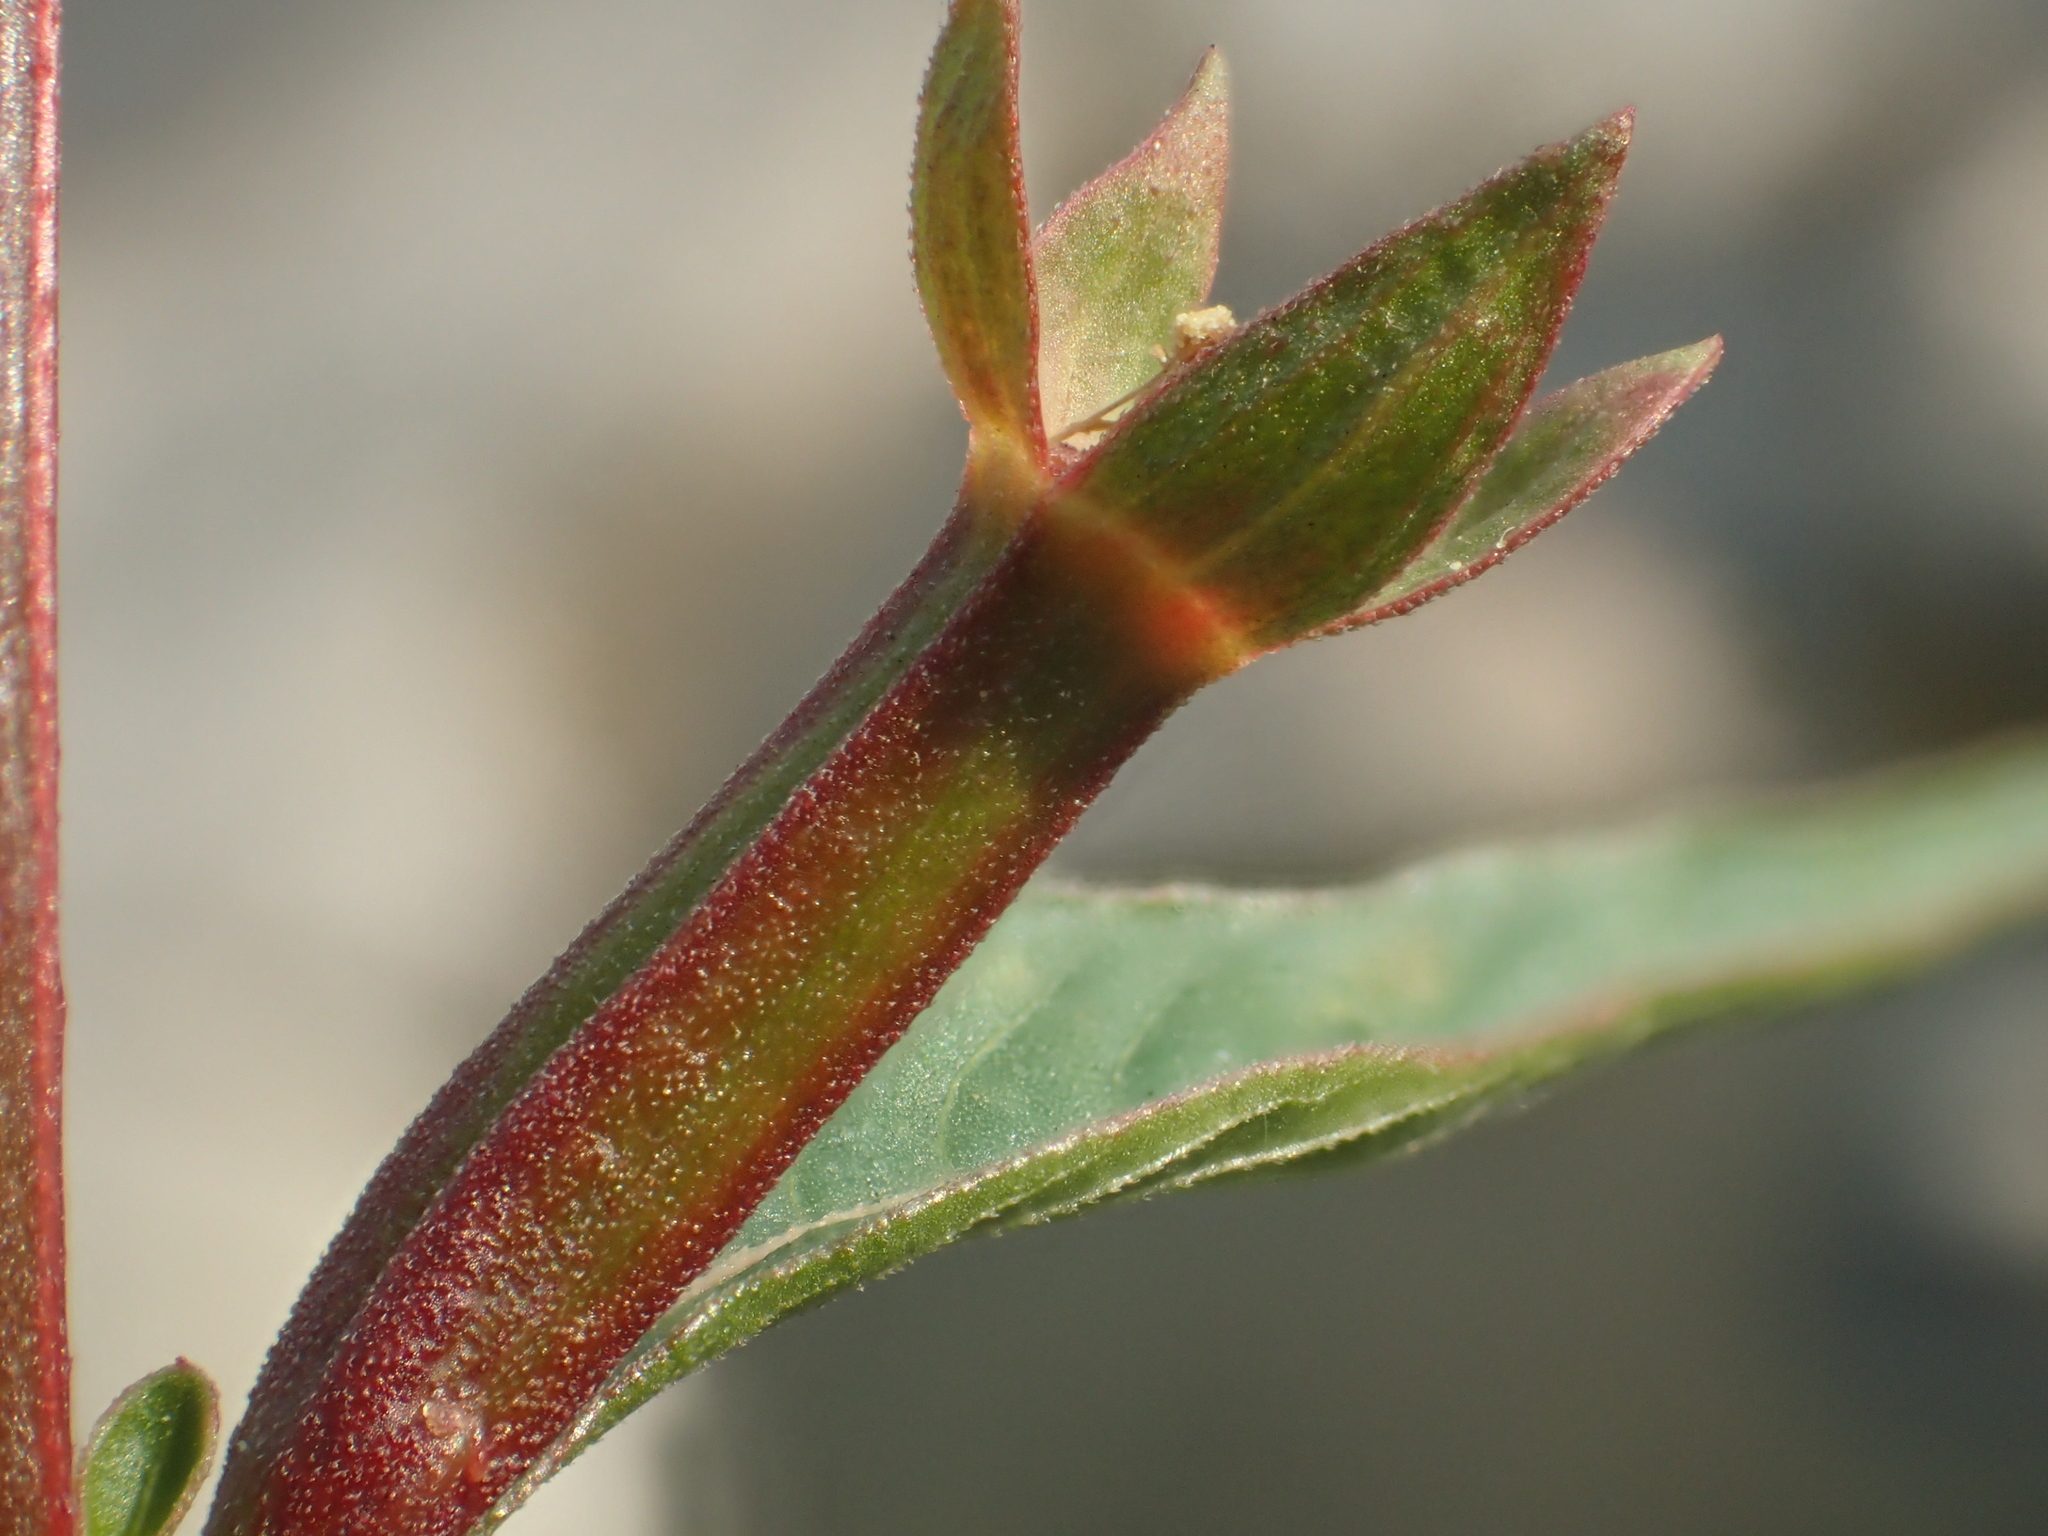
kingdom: Plantae
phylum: Tracheophyta
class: Magnoliopsida
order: Myrtales
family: Onagraceae
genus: Ludwigia
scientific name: Ludwigia erecta
